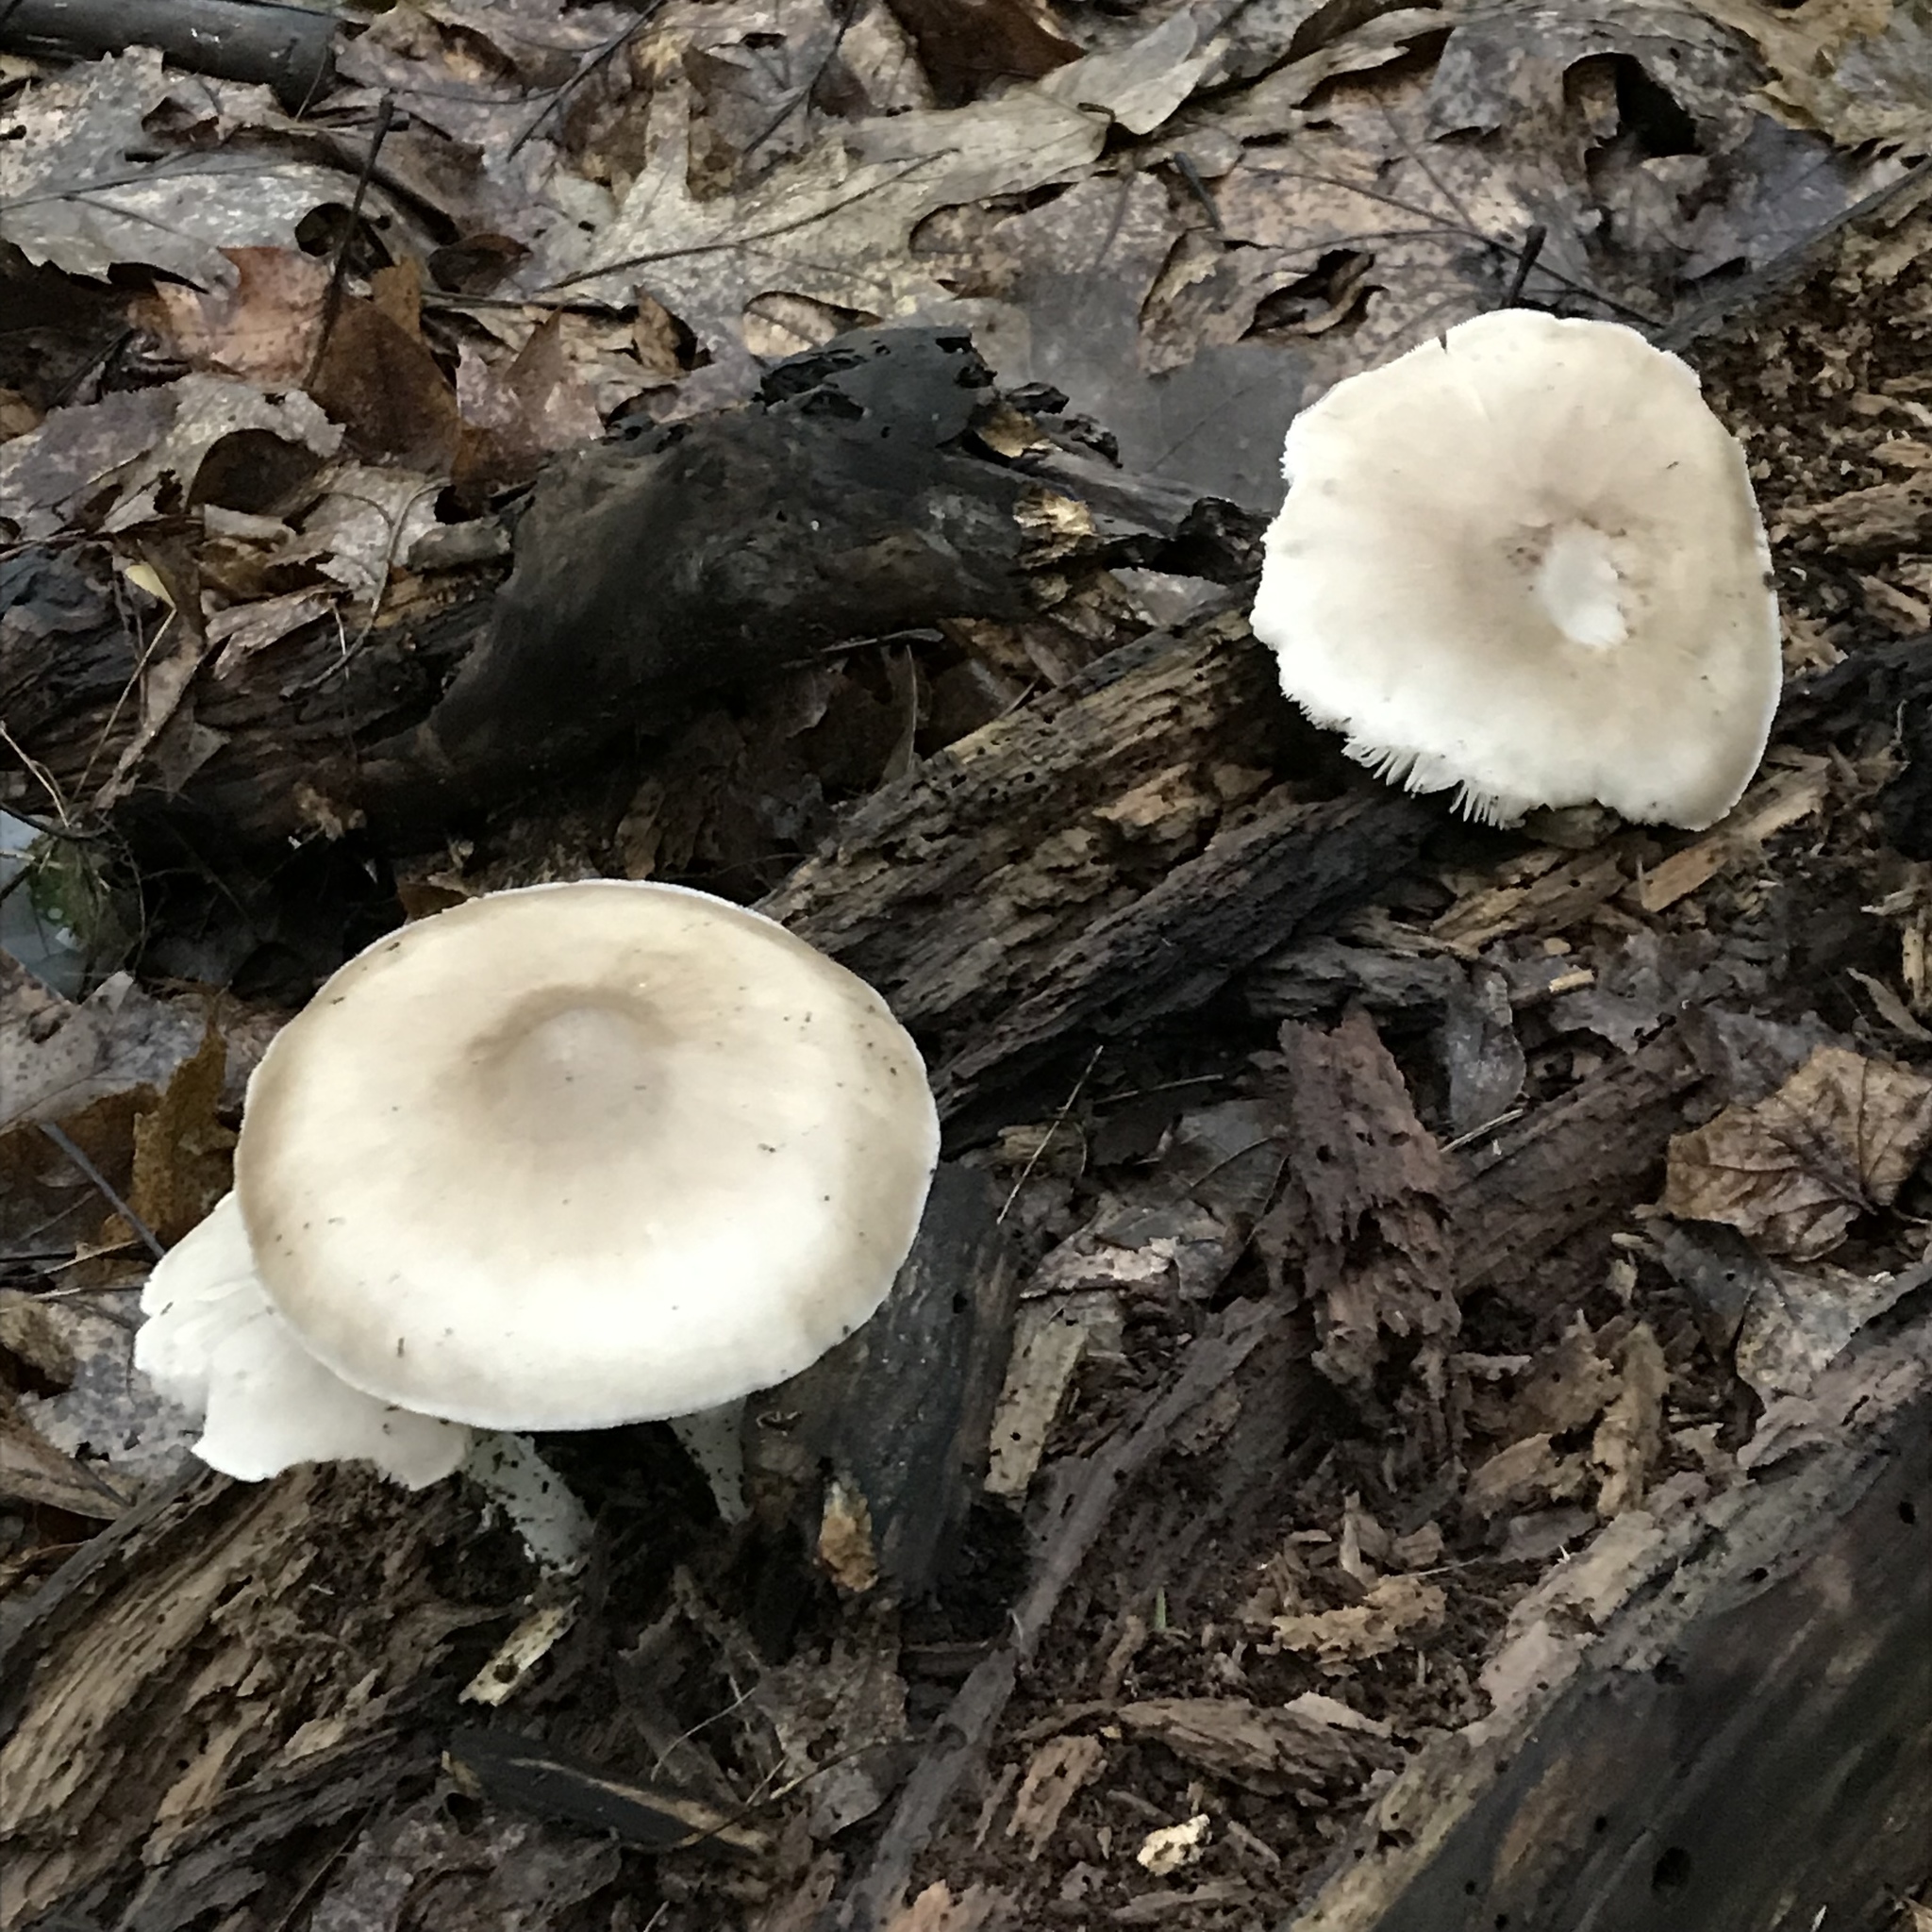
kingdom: Fungi
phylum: Basidiomycota
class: Agaricomycetes
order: Agaricales
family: Pluteaceae
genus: Pluteus
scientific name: Pluteus cervinus
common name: Deer shield
